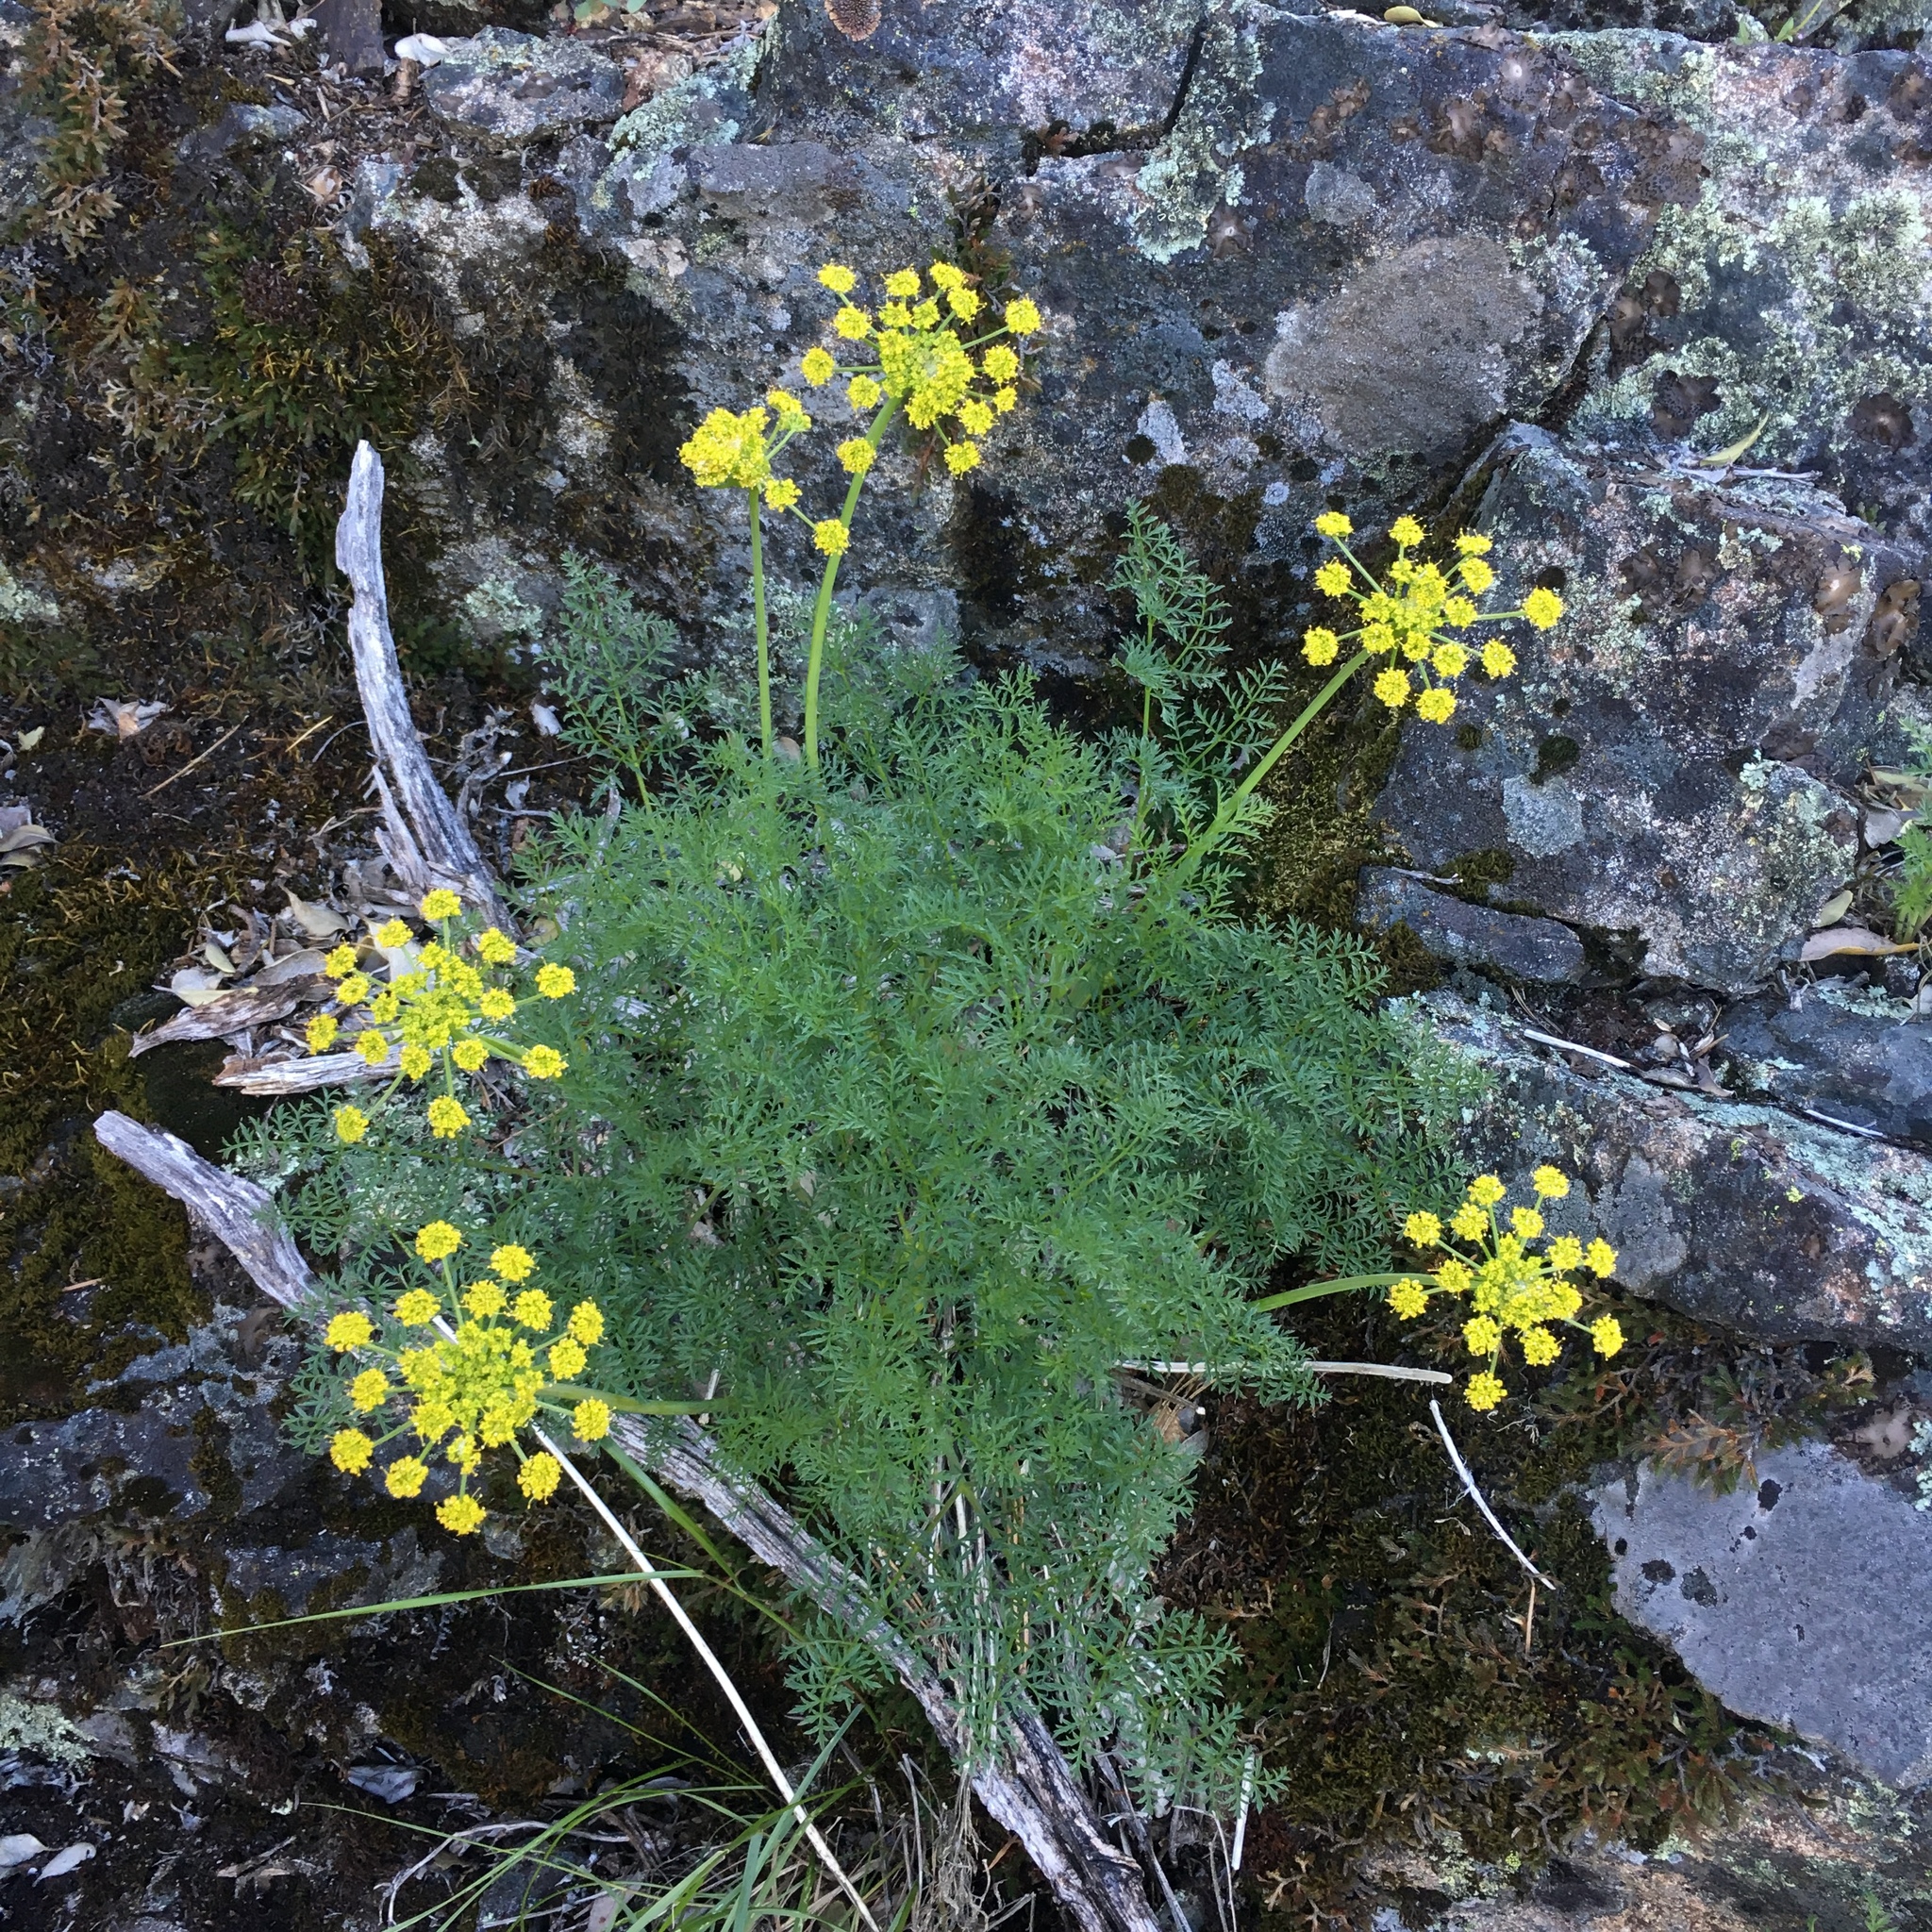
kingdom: Plantae
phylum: Tracheophyta
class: Magnoliopsida
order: Apiales
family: Apiaceae
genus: Pteryxia
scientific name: Pteryxia terebinthina
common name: Turpentine wavewing
